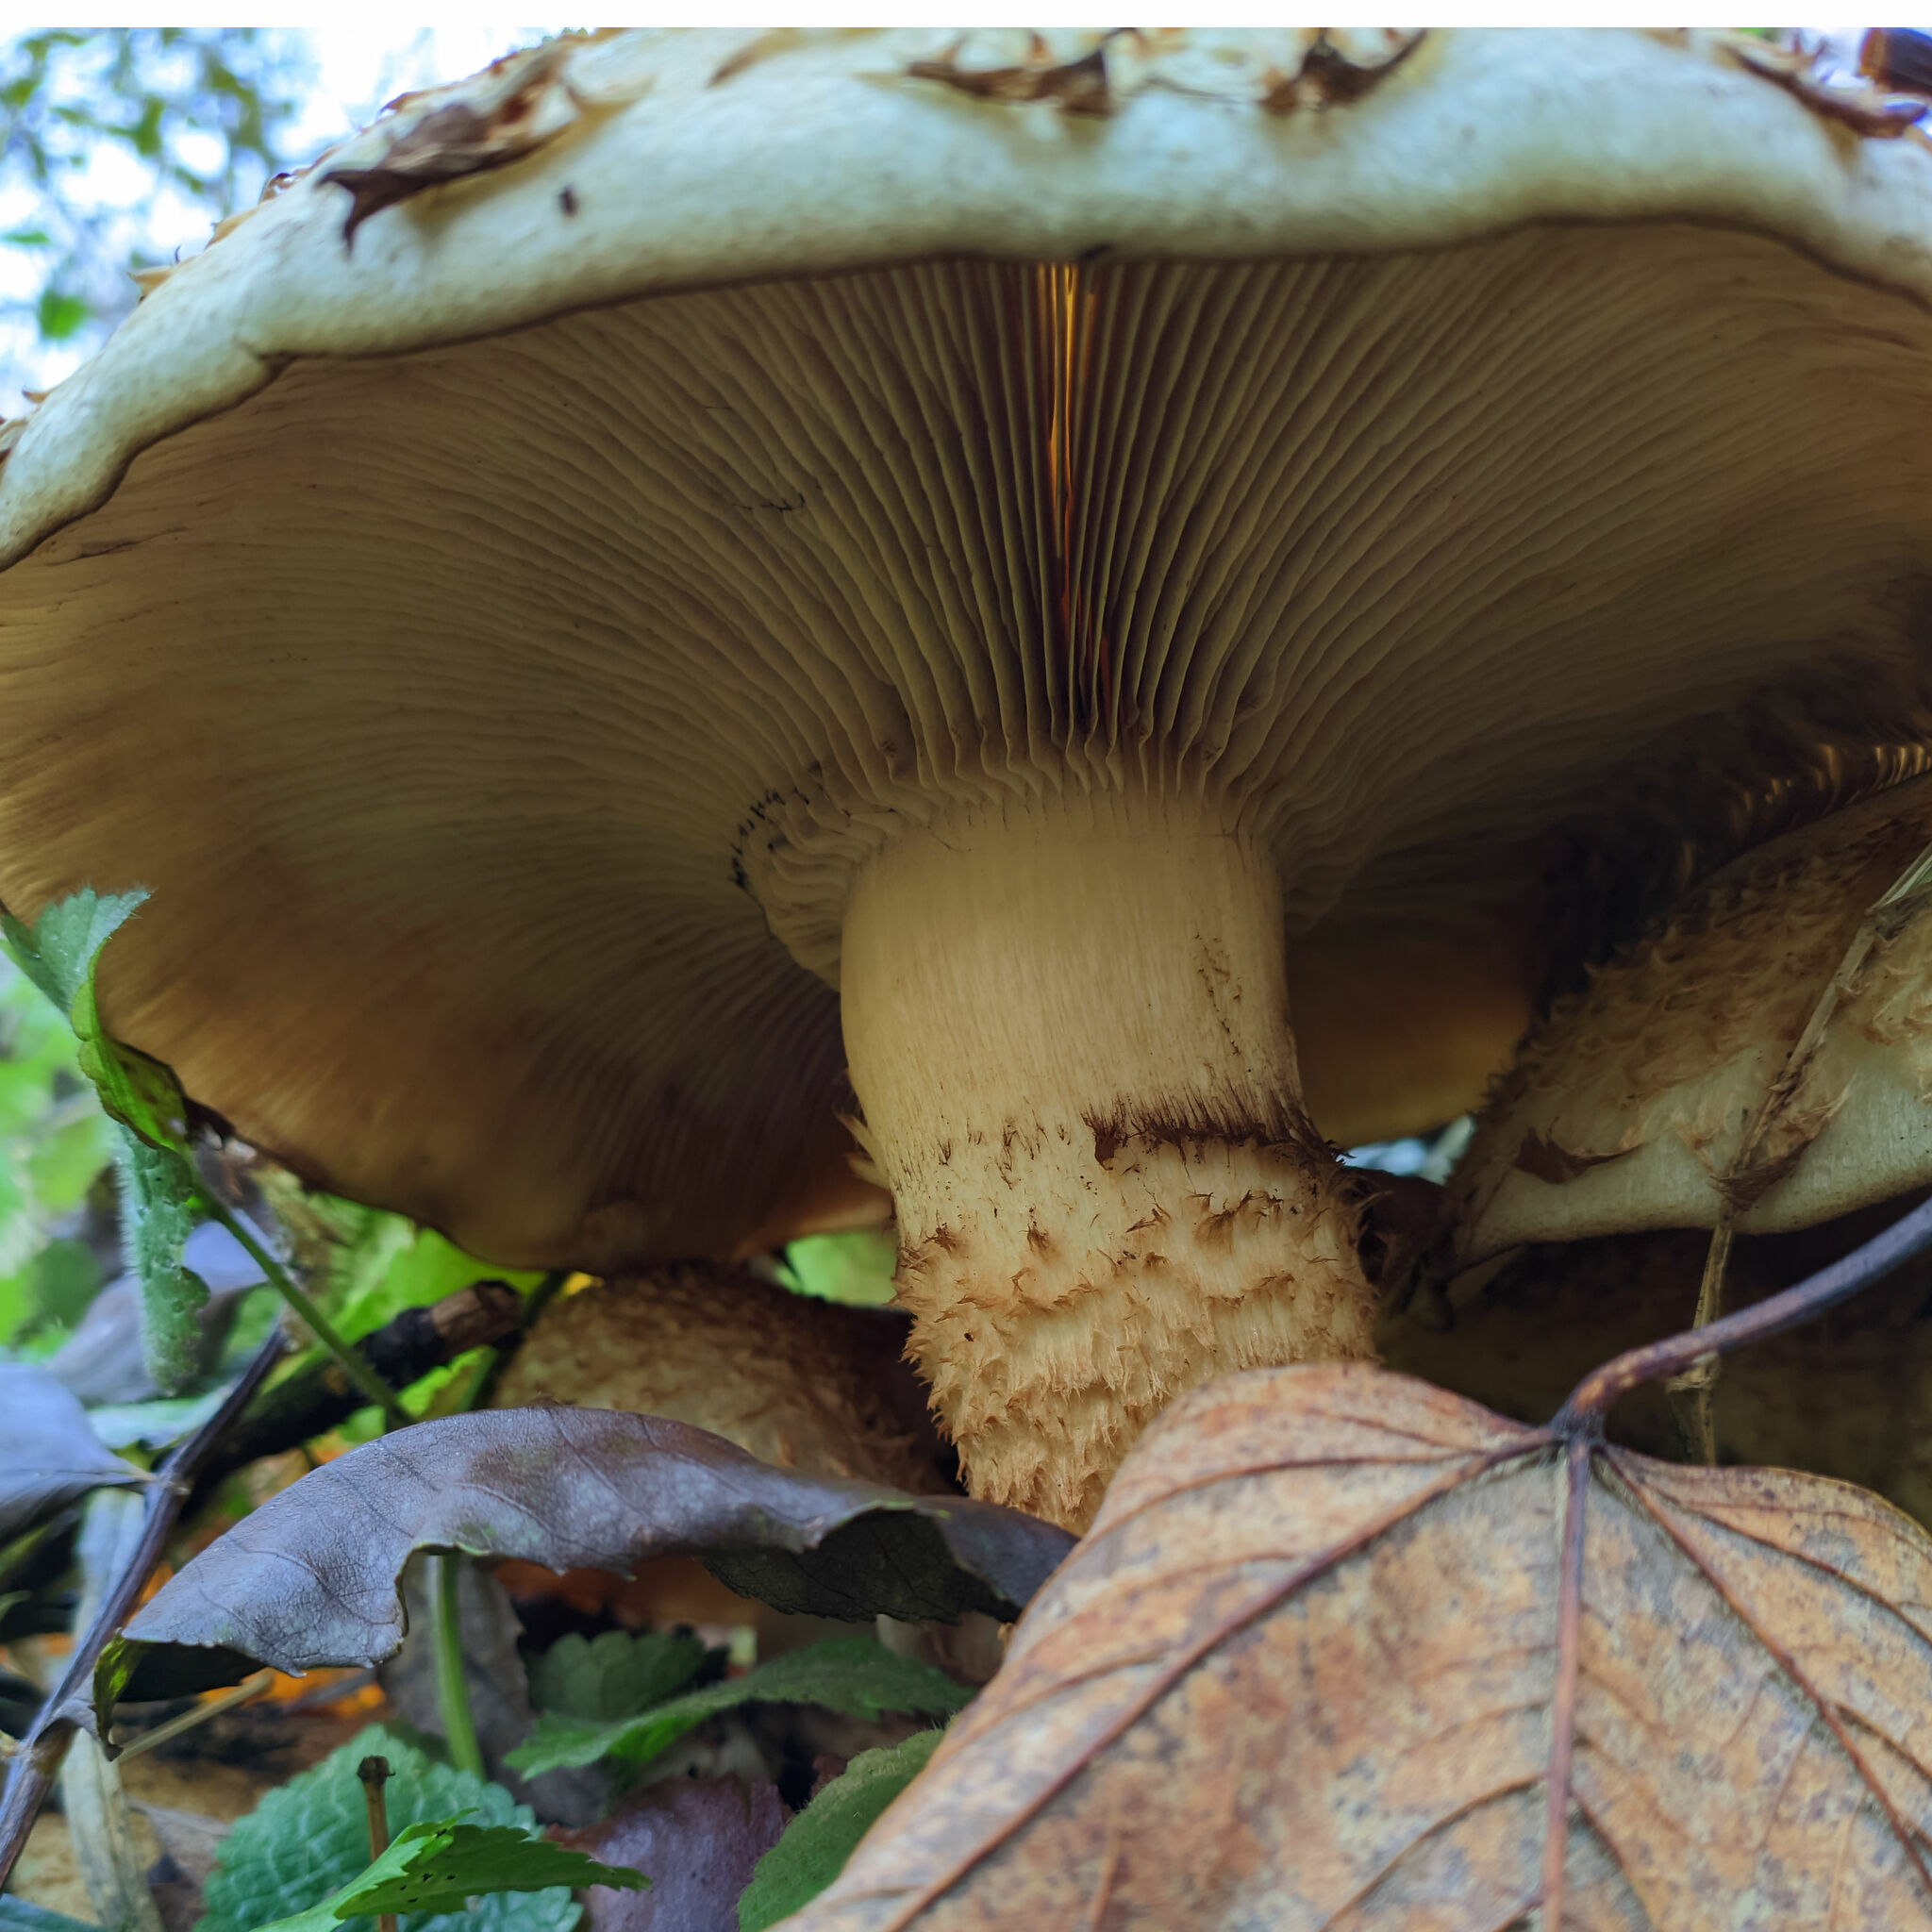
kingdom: Fungi
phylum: Basidiomycota
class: Agaricomycetes
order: Agaricales
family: Strophariaceae
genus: Pholiota
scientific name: Pholiota squarrosa
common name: Shaggy pholiota
